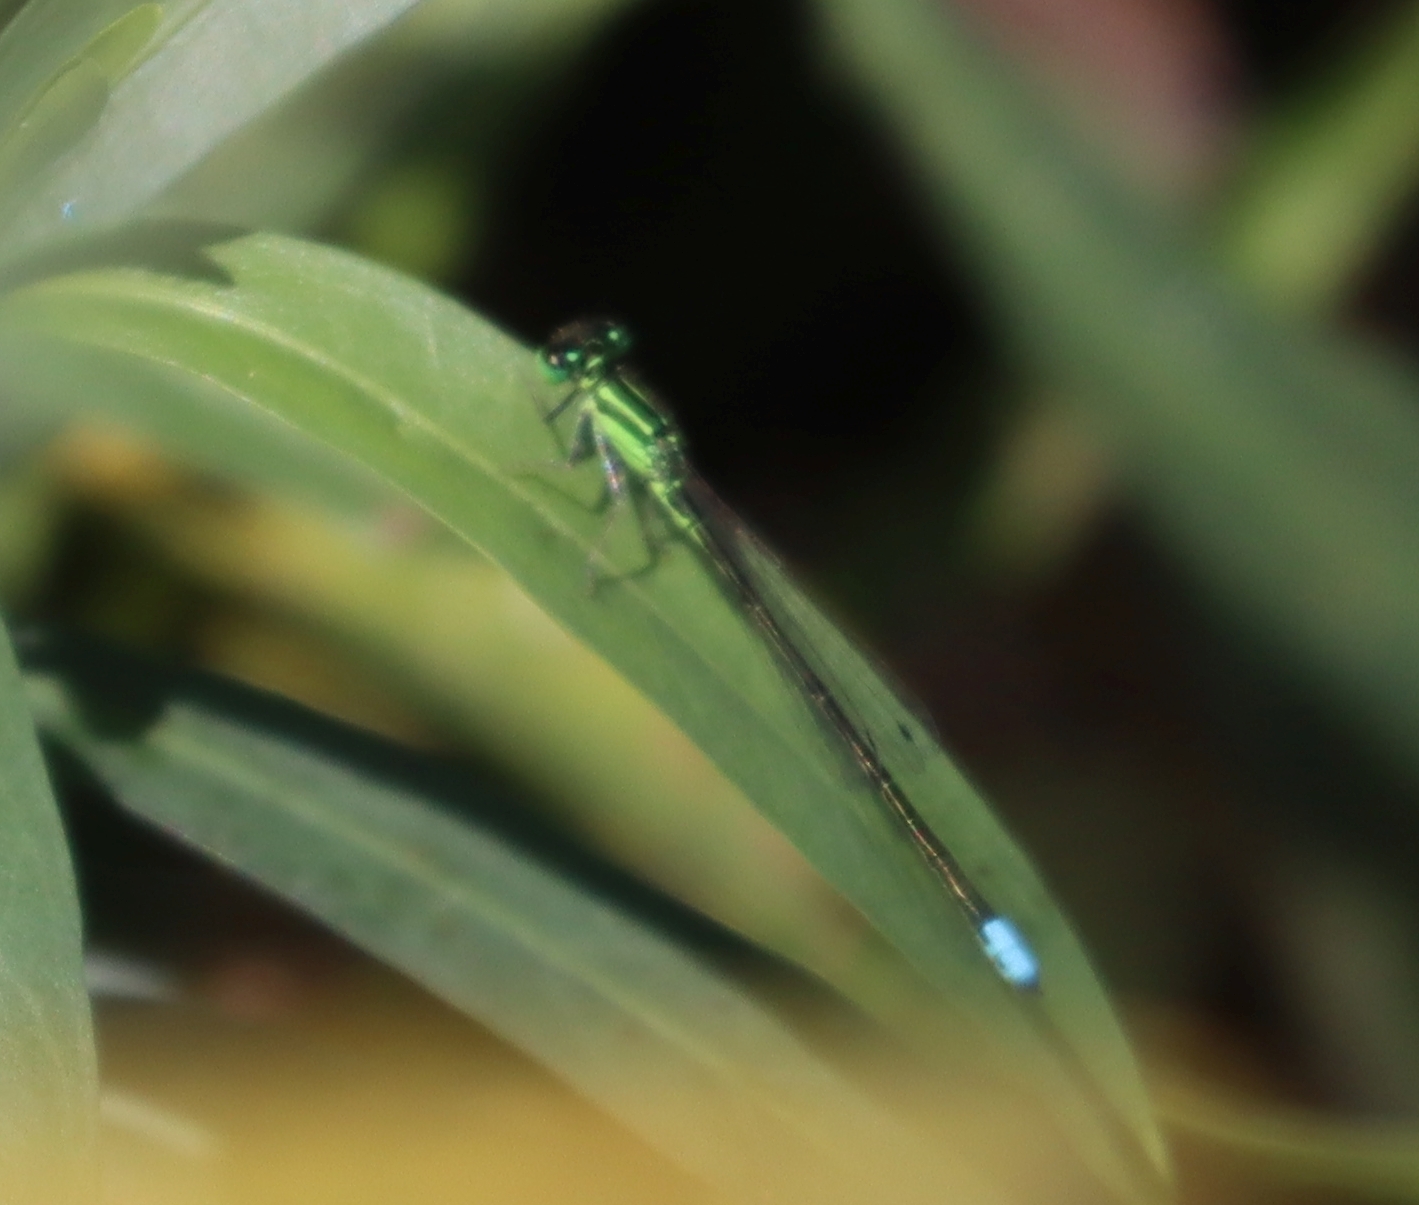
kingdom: Animalia
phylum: Arthropoda
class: Insecta
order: Odonata
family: Coenagrionidae
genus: Ischnura
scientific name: Ischnura verticalis
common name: Eastern forktail
